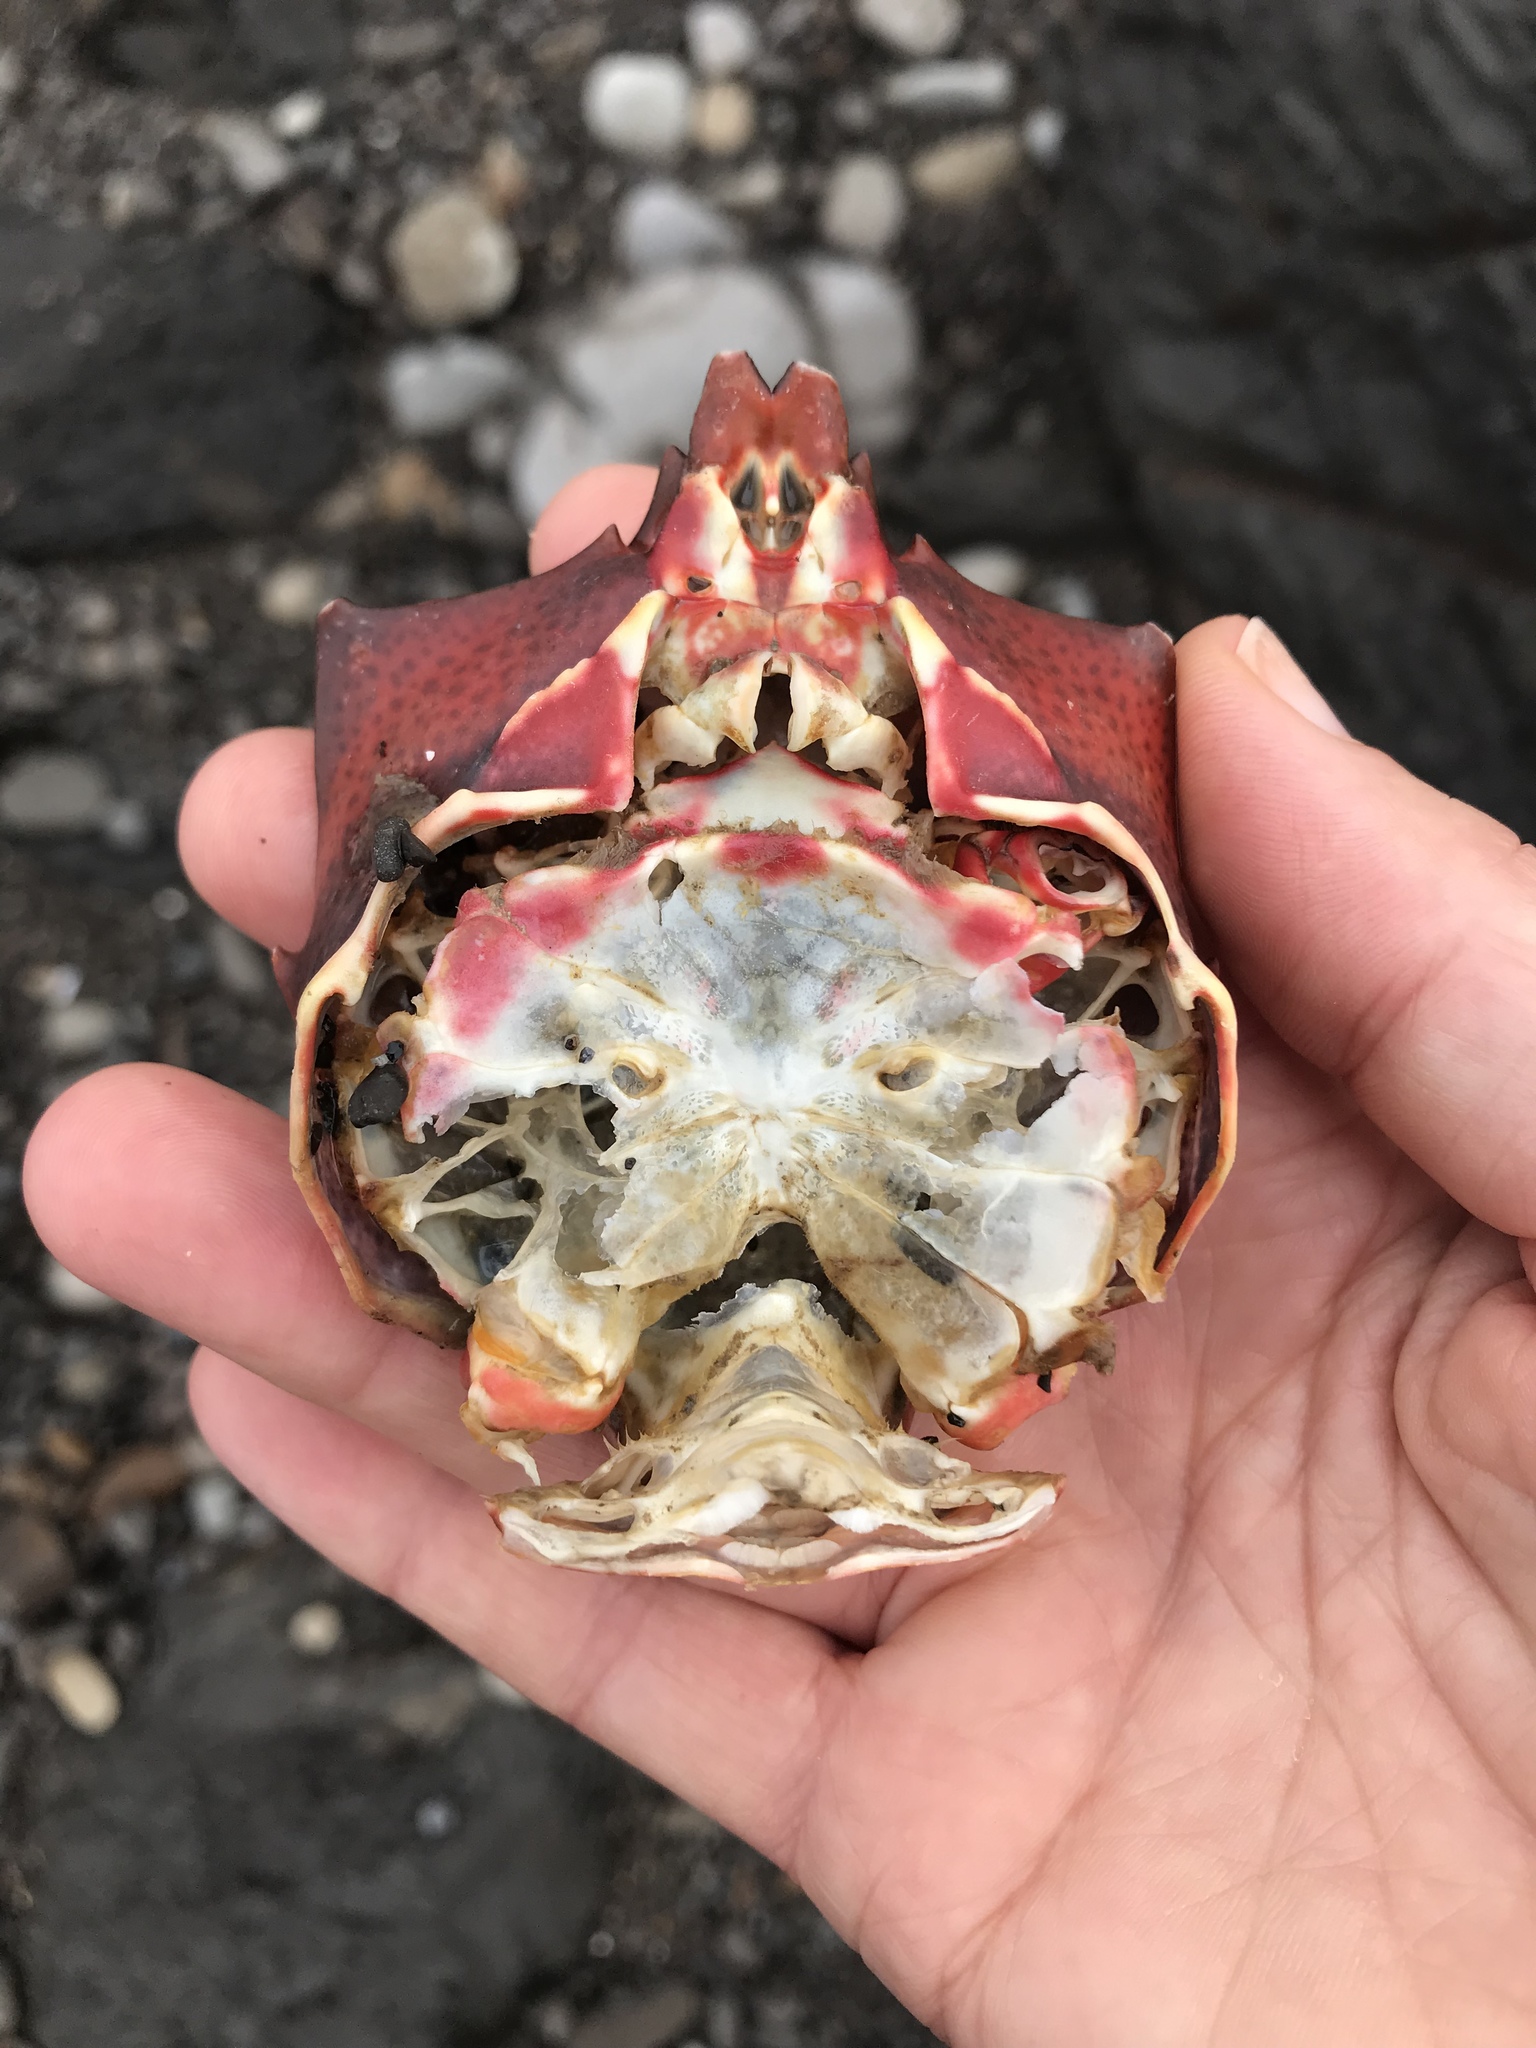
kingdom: Animalia
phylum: Arthropoda
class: Malacostraca
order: Decapoda
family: Epialtidae
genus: Pugettia
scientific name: Pugettia producta
